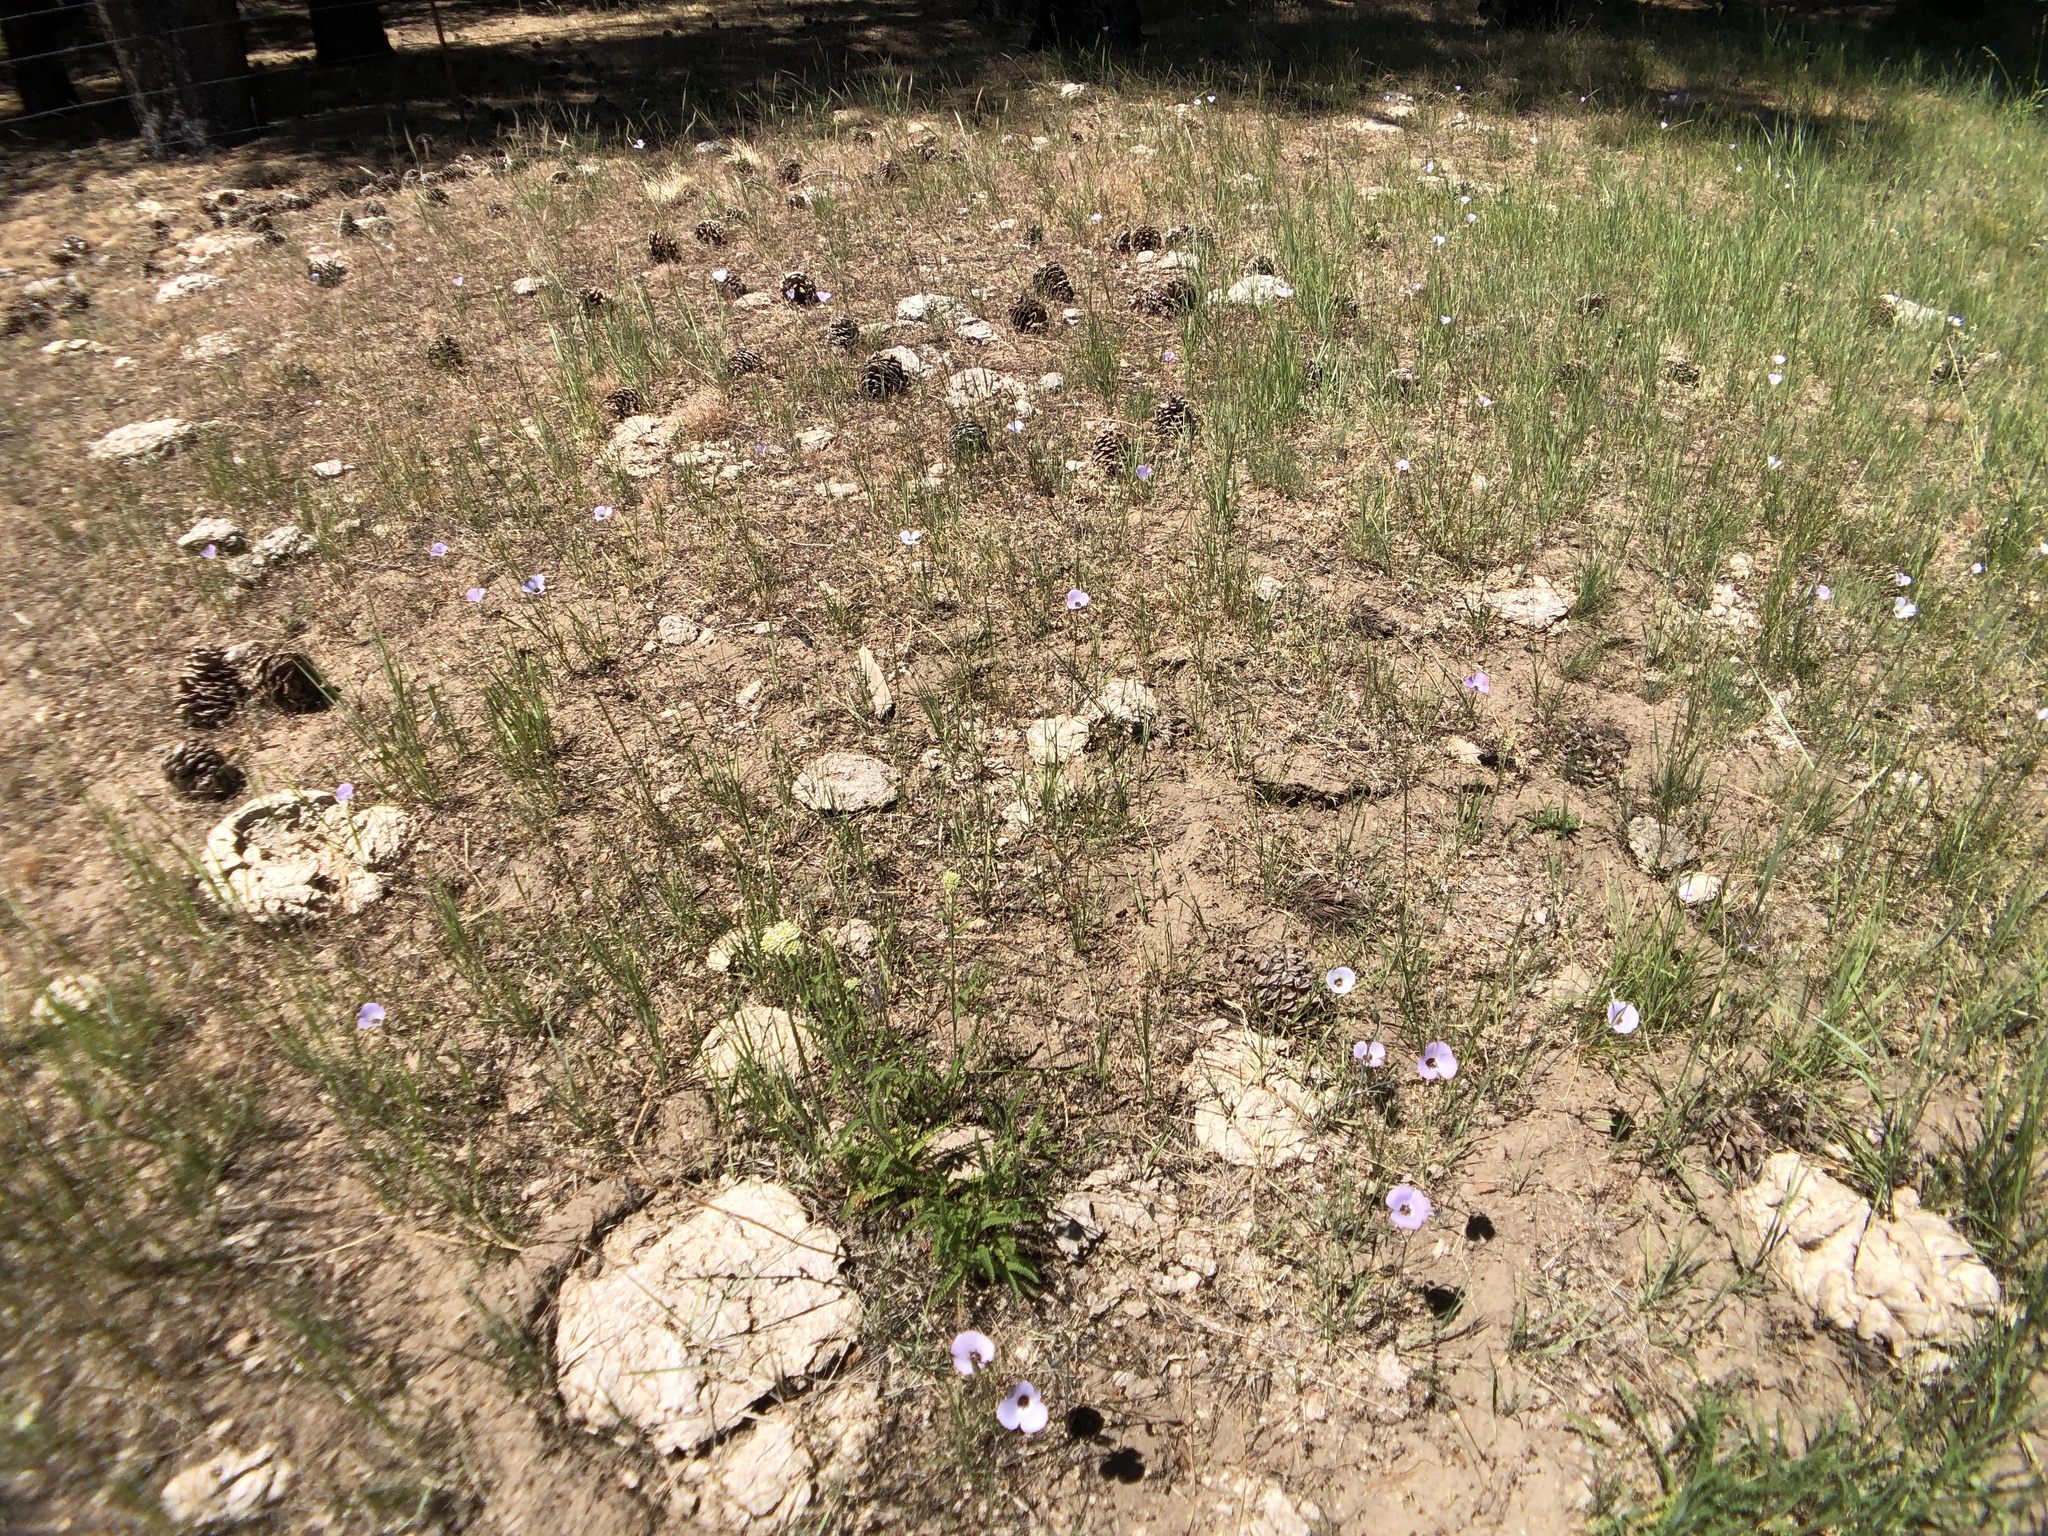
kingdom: Plantae
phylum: Tracheophyta
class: Liliopsida
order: Liliales
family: Liliaceae
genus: Calochortus
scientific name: Calochortus invenustus
